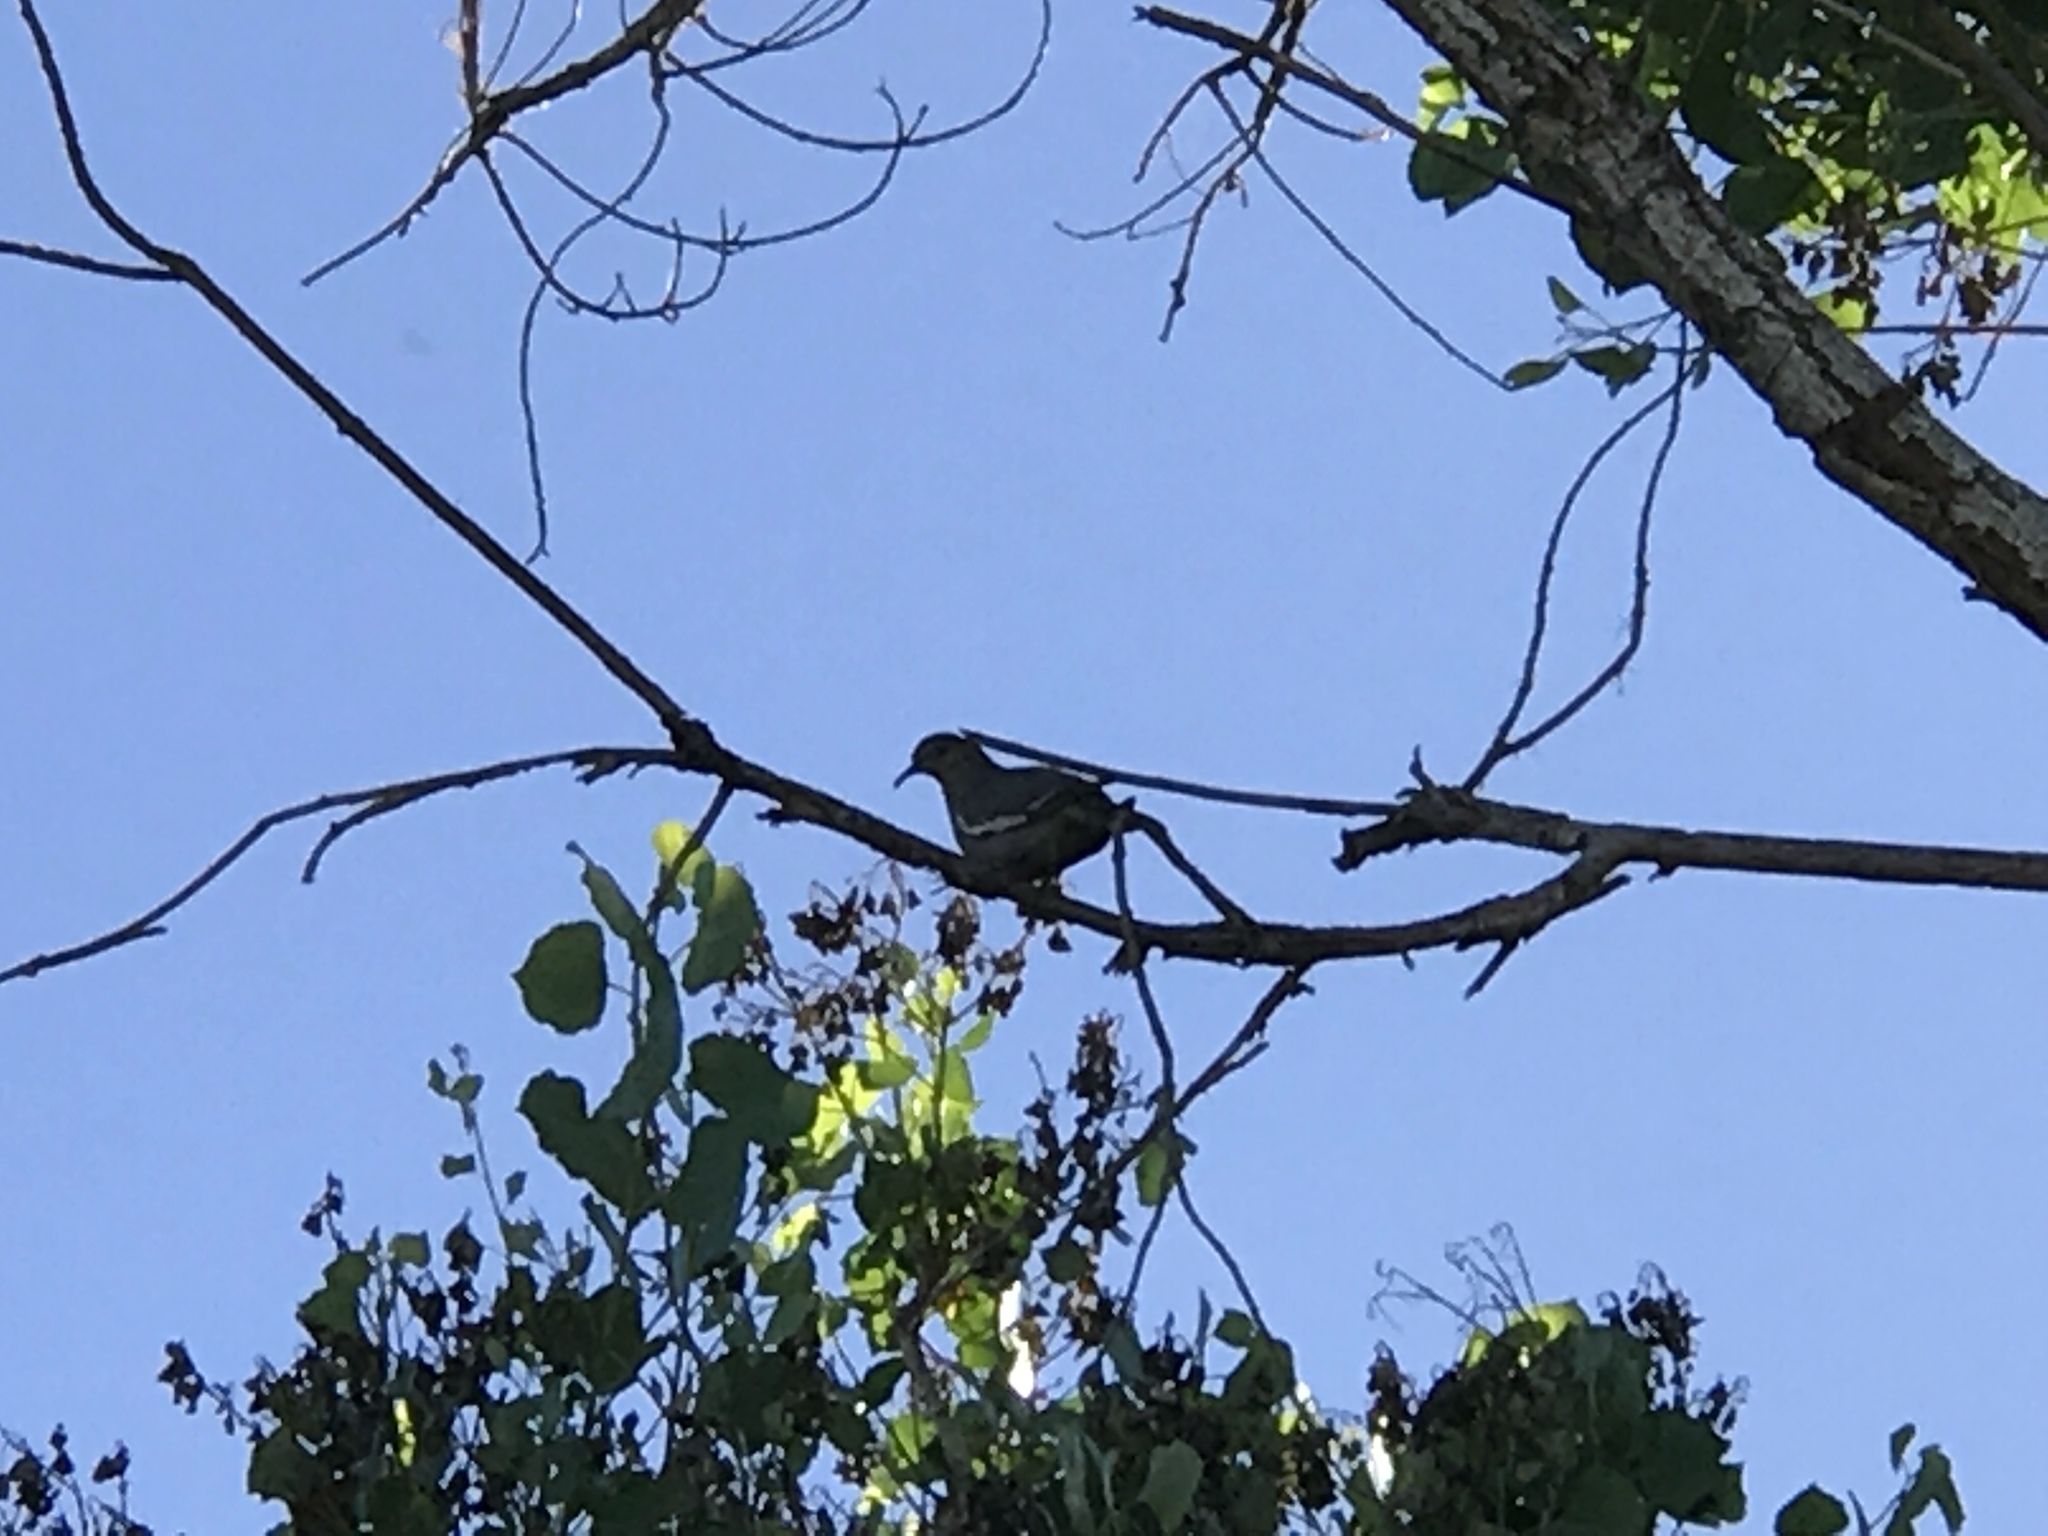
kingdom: Animalia
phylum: Chordata
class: Aves
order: Columbiformes
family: Columbidae
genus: Zenaida
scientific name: Zenaida asiatica
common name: White-winged dove
